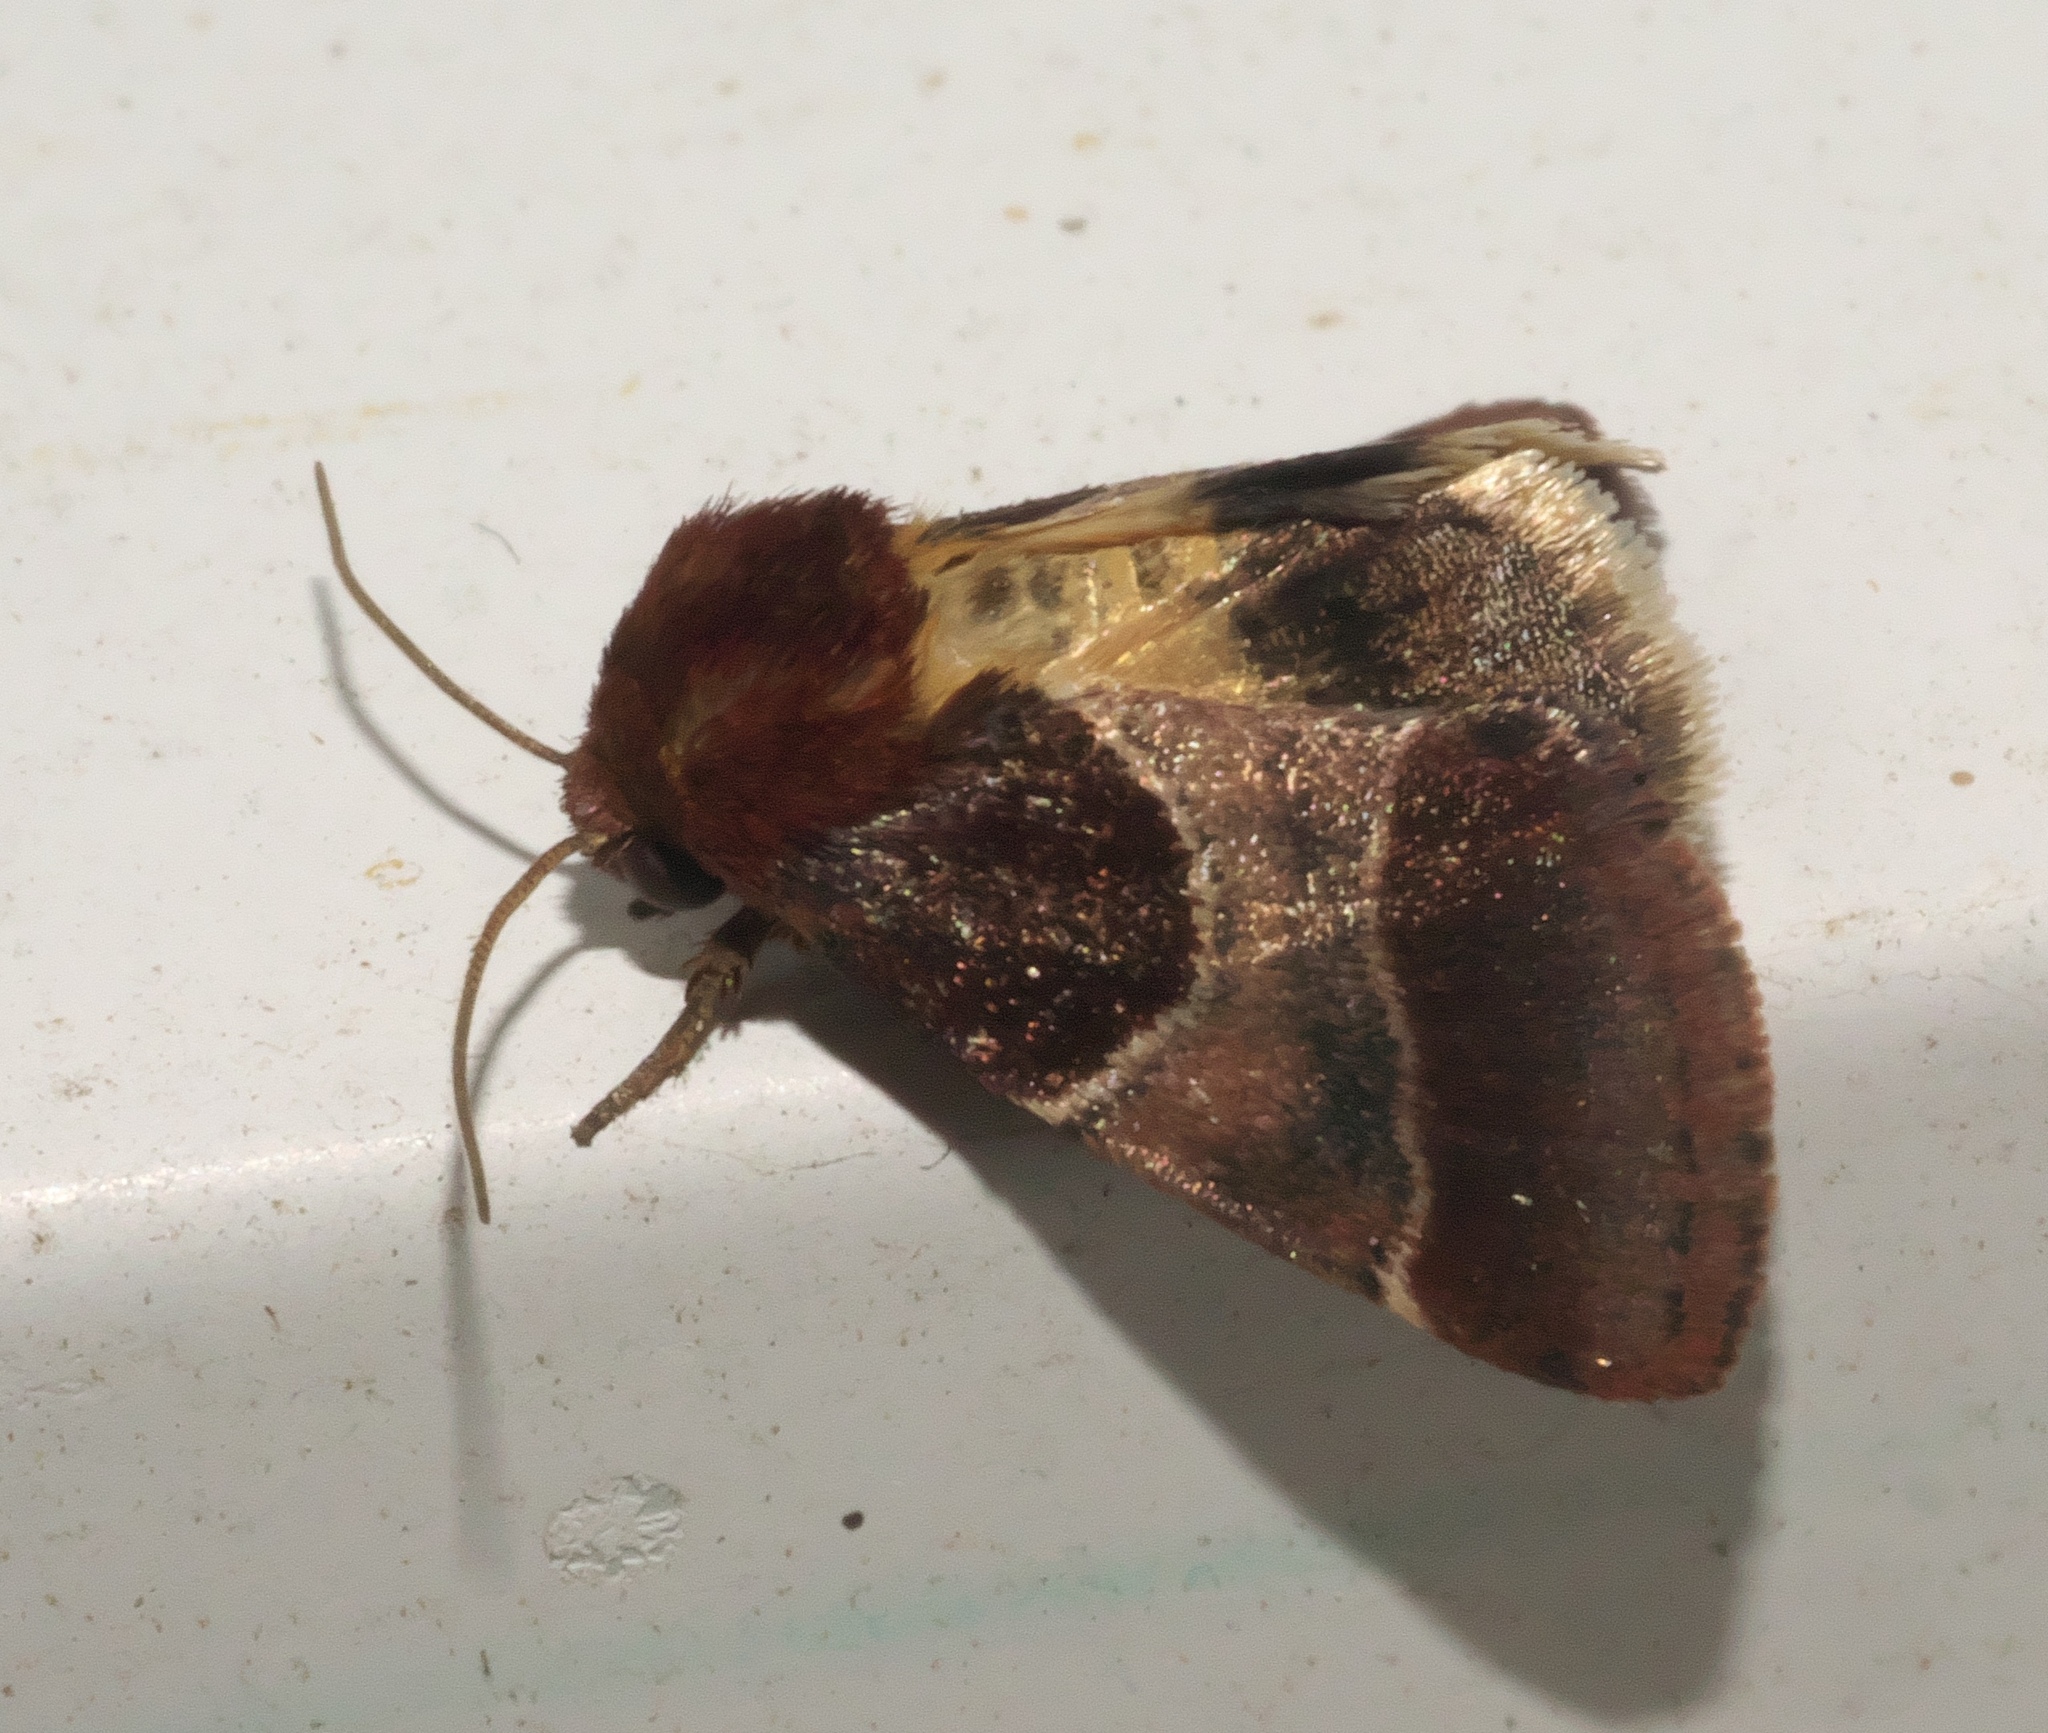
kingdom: Animalia
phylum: Arthropoda
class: Insecta
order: Lepidoptera
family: Noctuidae
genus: Schinia
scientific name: Schinia arcigera
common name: Arcigera flower moth
